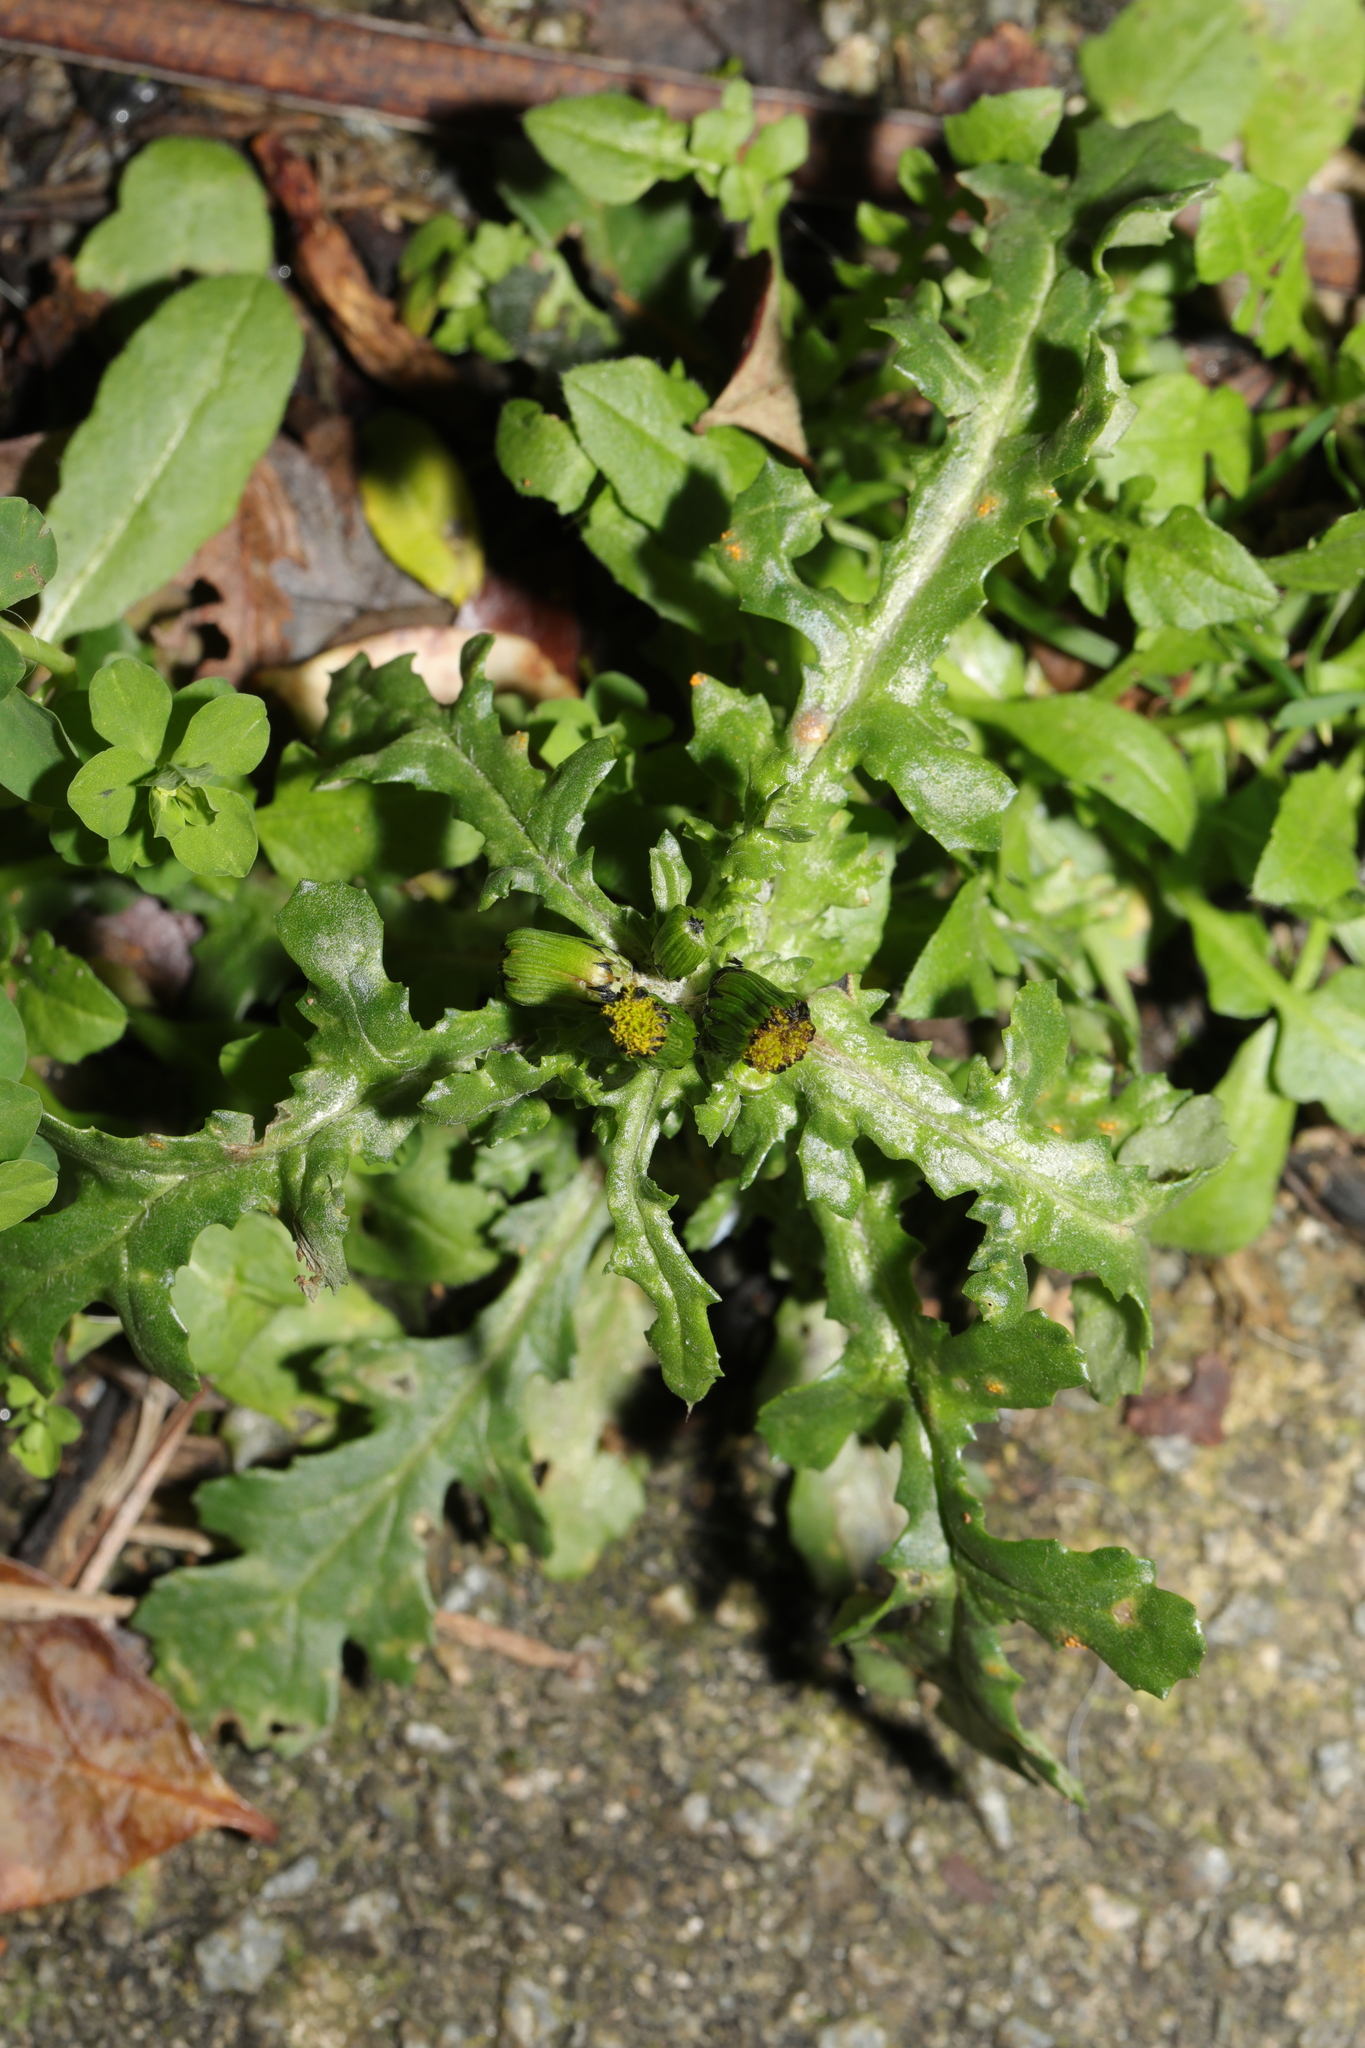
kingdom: Plantae
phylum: Tracheophyta
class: Magnoliopsida
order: Asterales
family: Asteraceae
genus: Senecio
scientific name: Senecio vulgaris
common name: Old-man-in-the-spring
